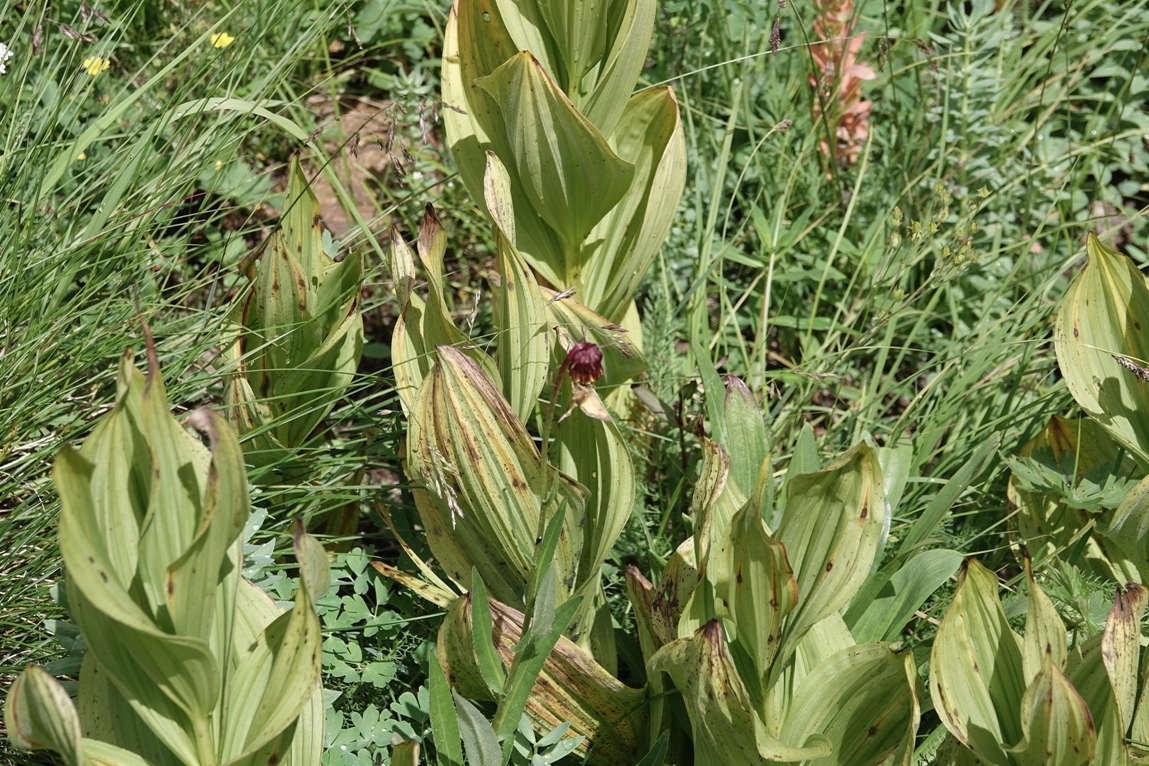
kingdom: Plantae
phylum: Tracheophyta
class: Liliopsida
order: Liliales
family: Melanthiaceae
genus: Veratrum
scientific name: Veratrum californicum
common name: California veratrum
